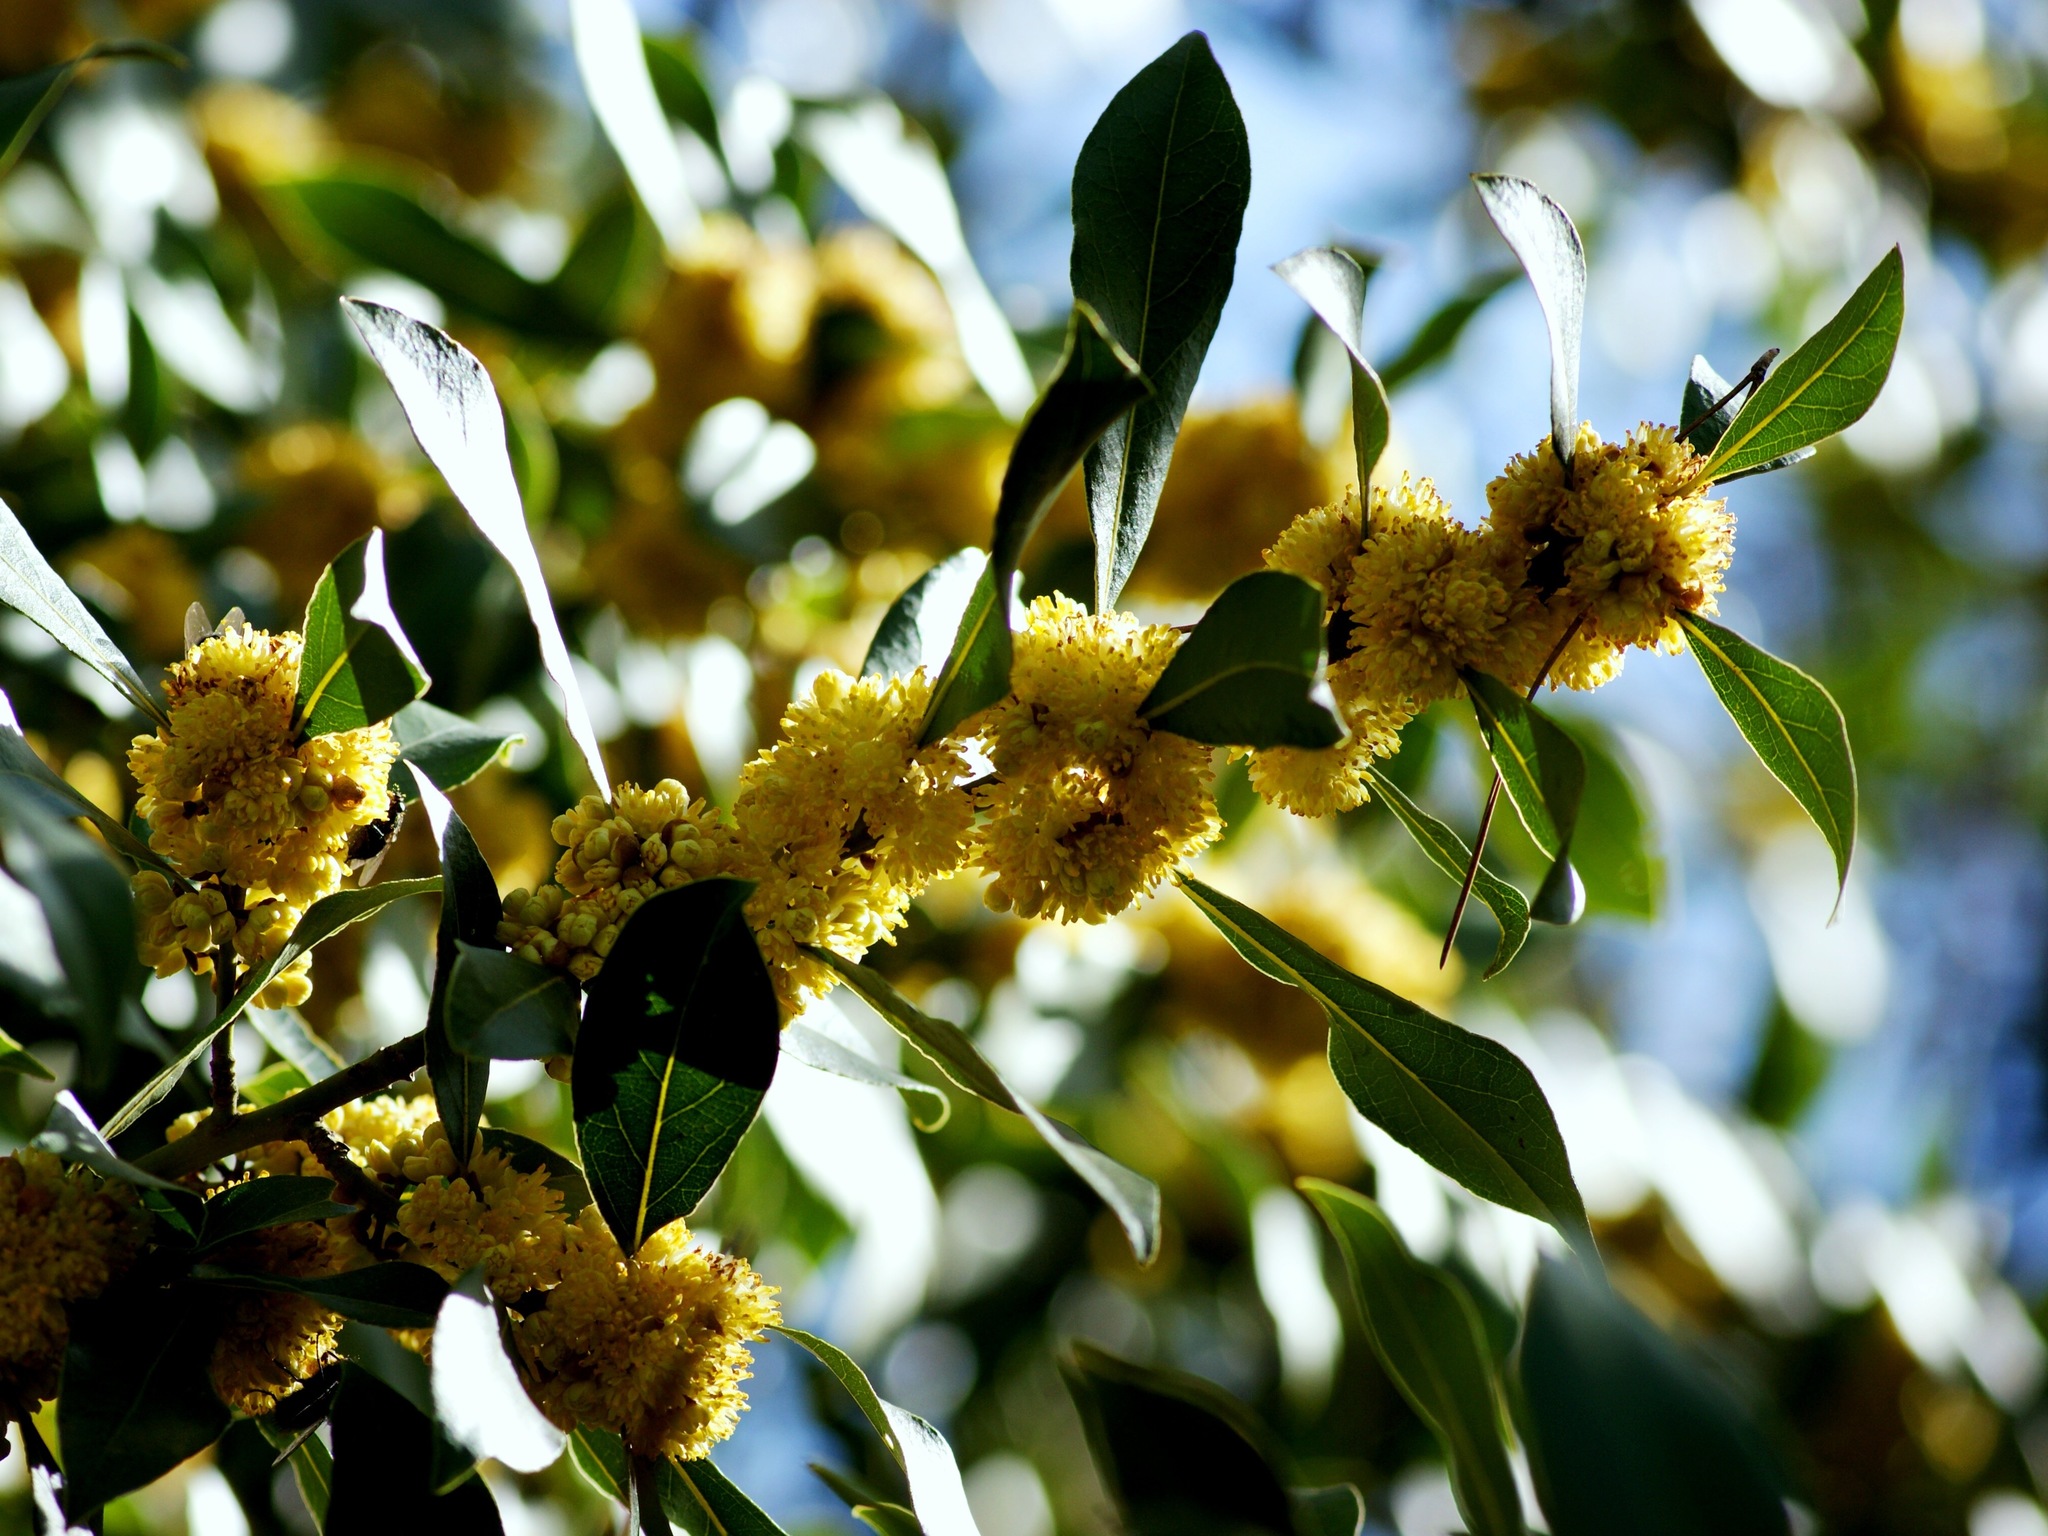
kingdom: Plantae
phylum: Tracheophyta
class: Magnoliopsida
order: Laurales
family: Lauraceae
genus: Laurus
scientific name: Laurus nobilis
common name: Bay
